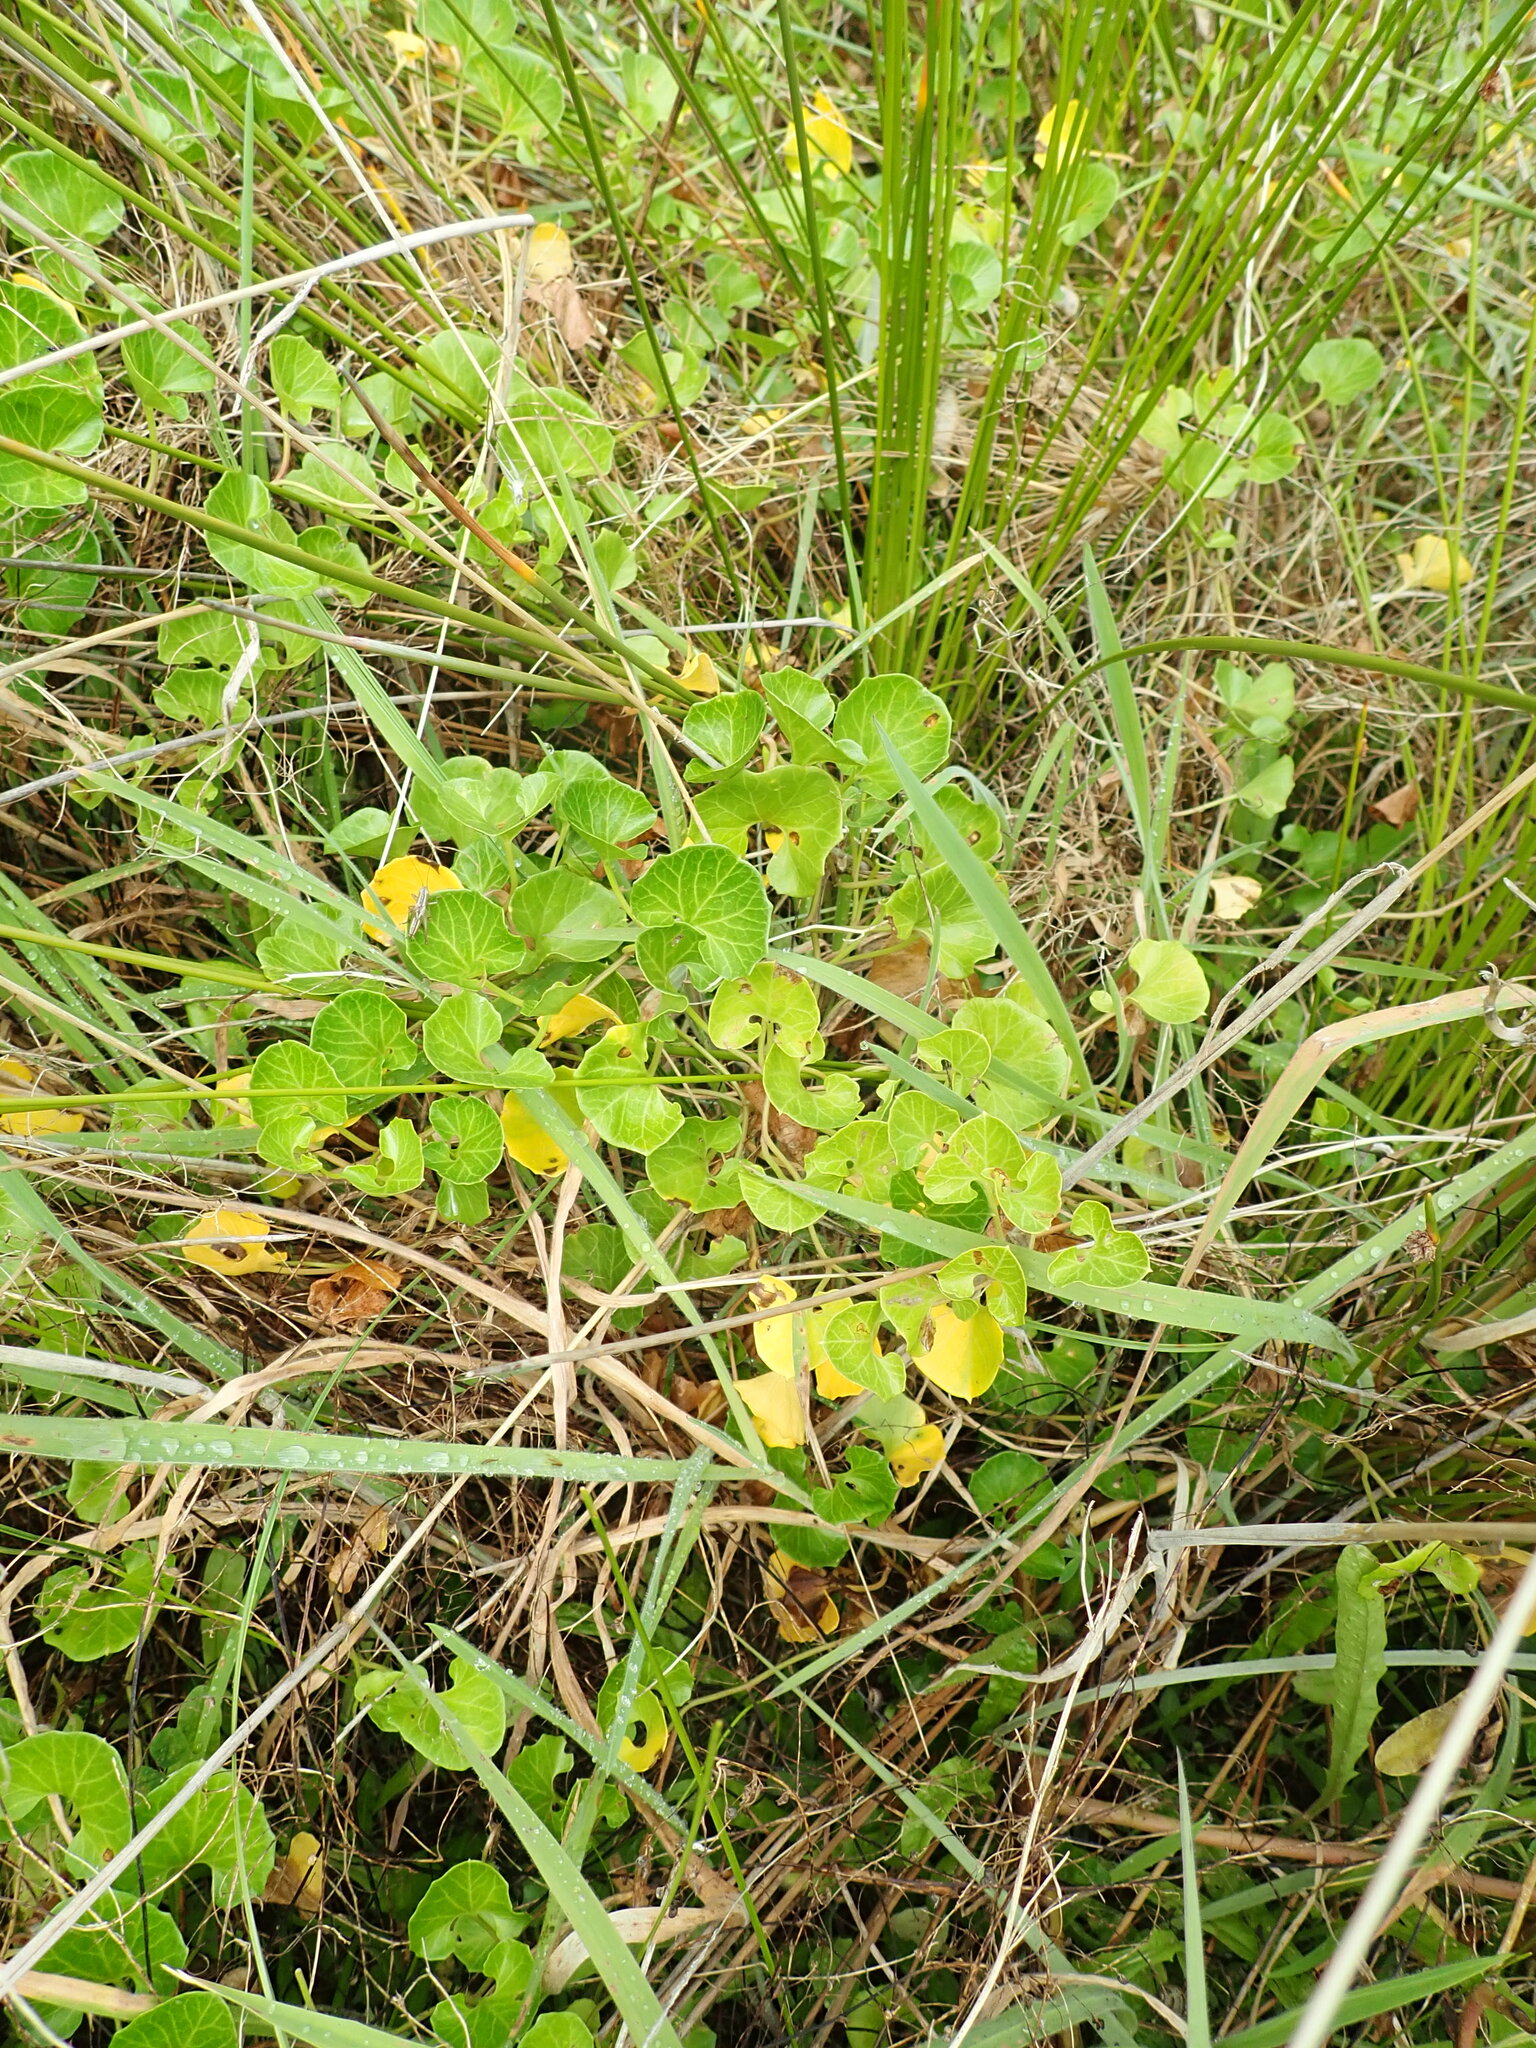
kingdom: Plantae
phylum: Tracheophyta
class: Magnoliopsida
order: Solanales
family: Convolvulaceae
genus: Calystegia
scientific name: Calystegia soldanella
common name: Sea bindweed
